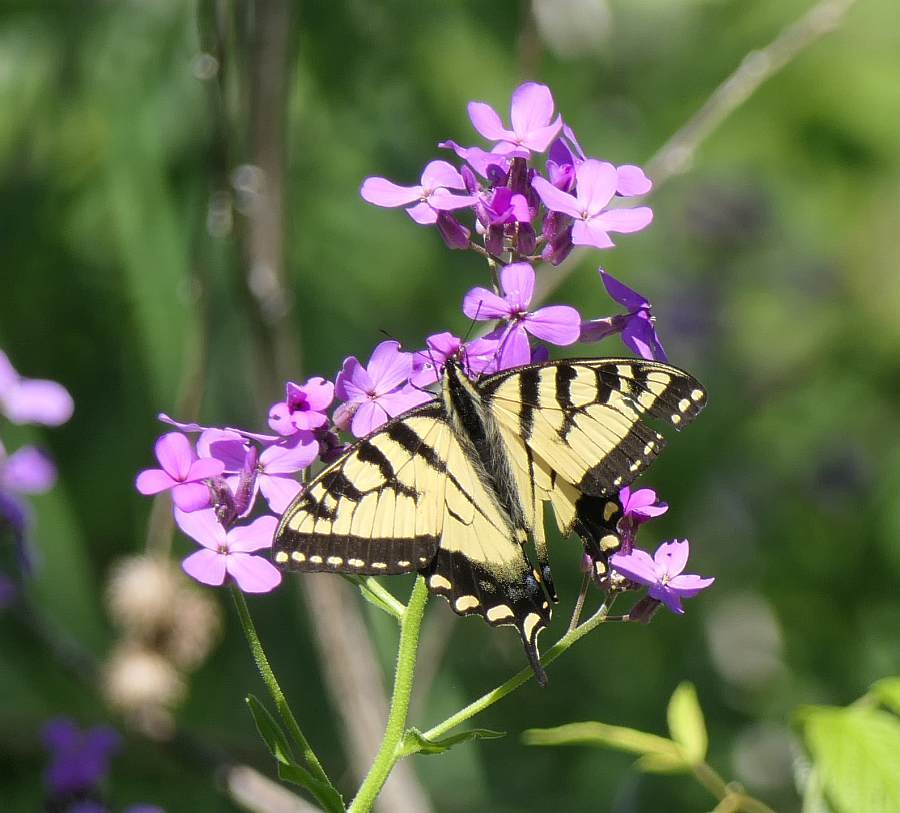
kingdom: Animalia
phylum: Arthropoda
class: Insecta
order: Lepidoptera
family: Papilionidae
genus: Papilio
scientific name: Papilio canadensis
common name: Canadian tiger swallowtail
